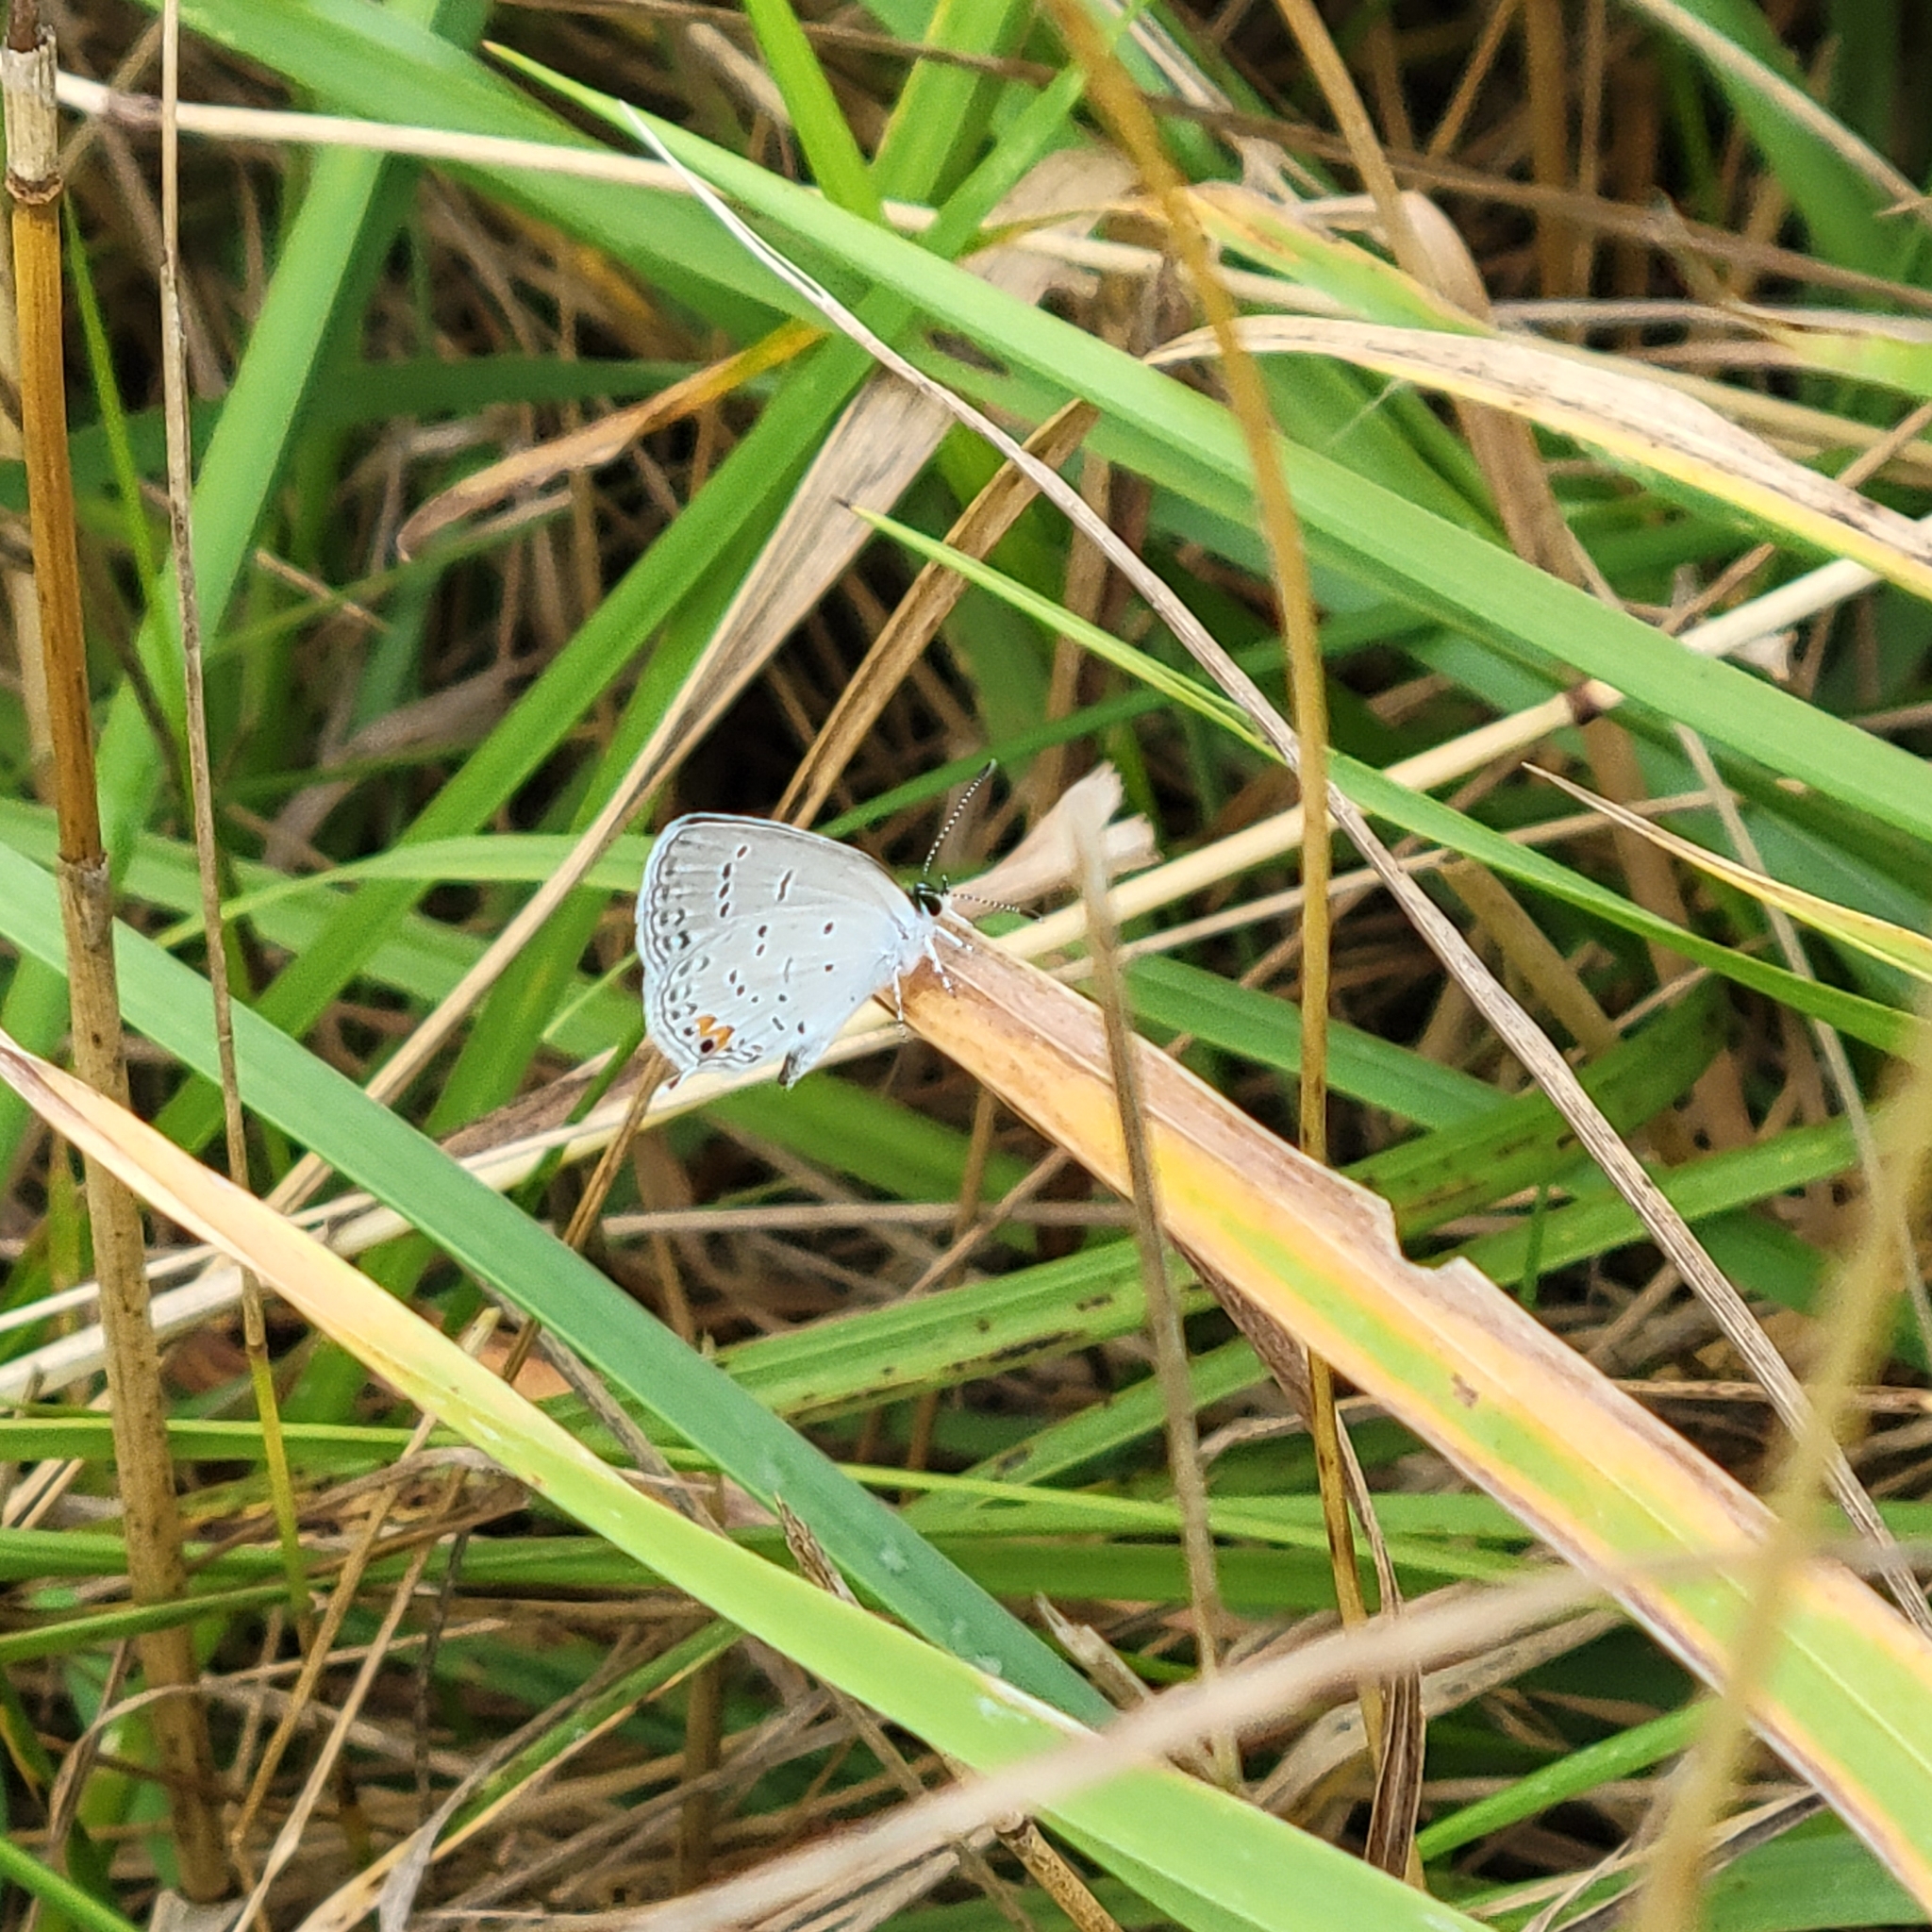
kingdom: Animalia
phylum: Arthropoda
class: Insecta
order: Lepidoptera
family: Lycaenidae
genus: Elkalyce
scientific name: Elkalyce comyntas
